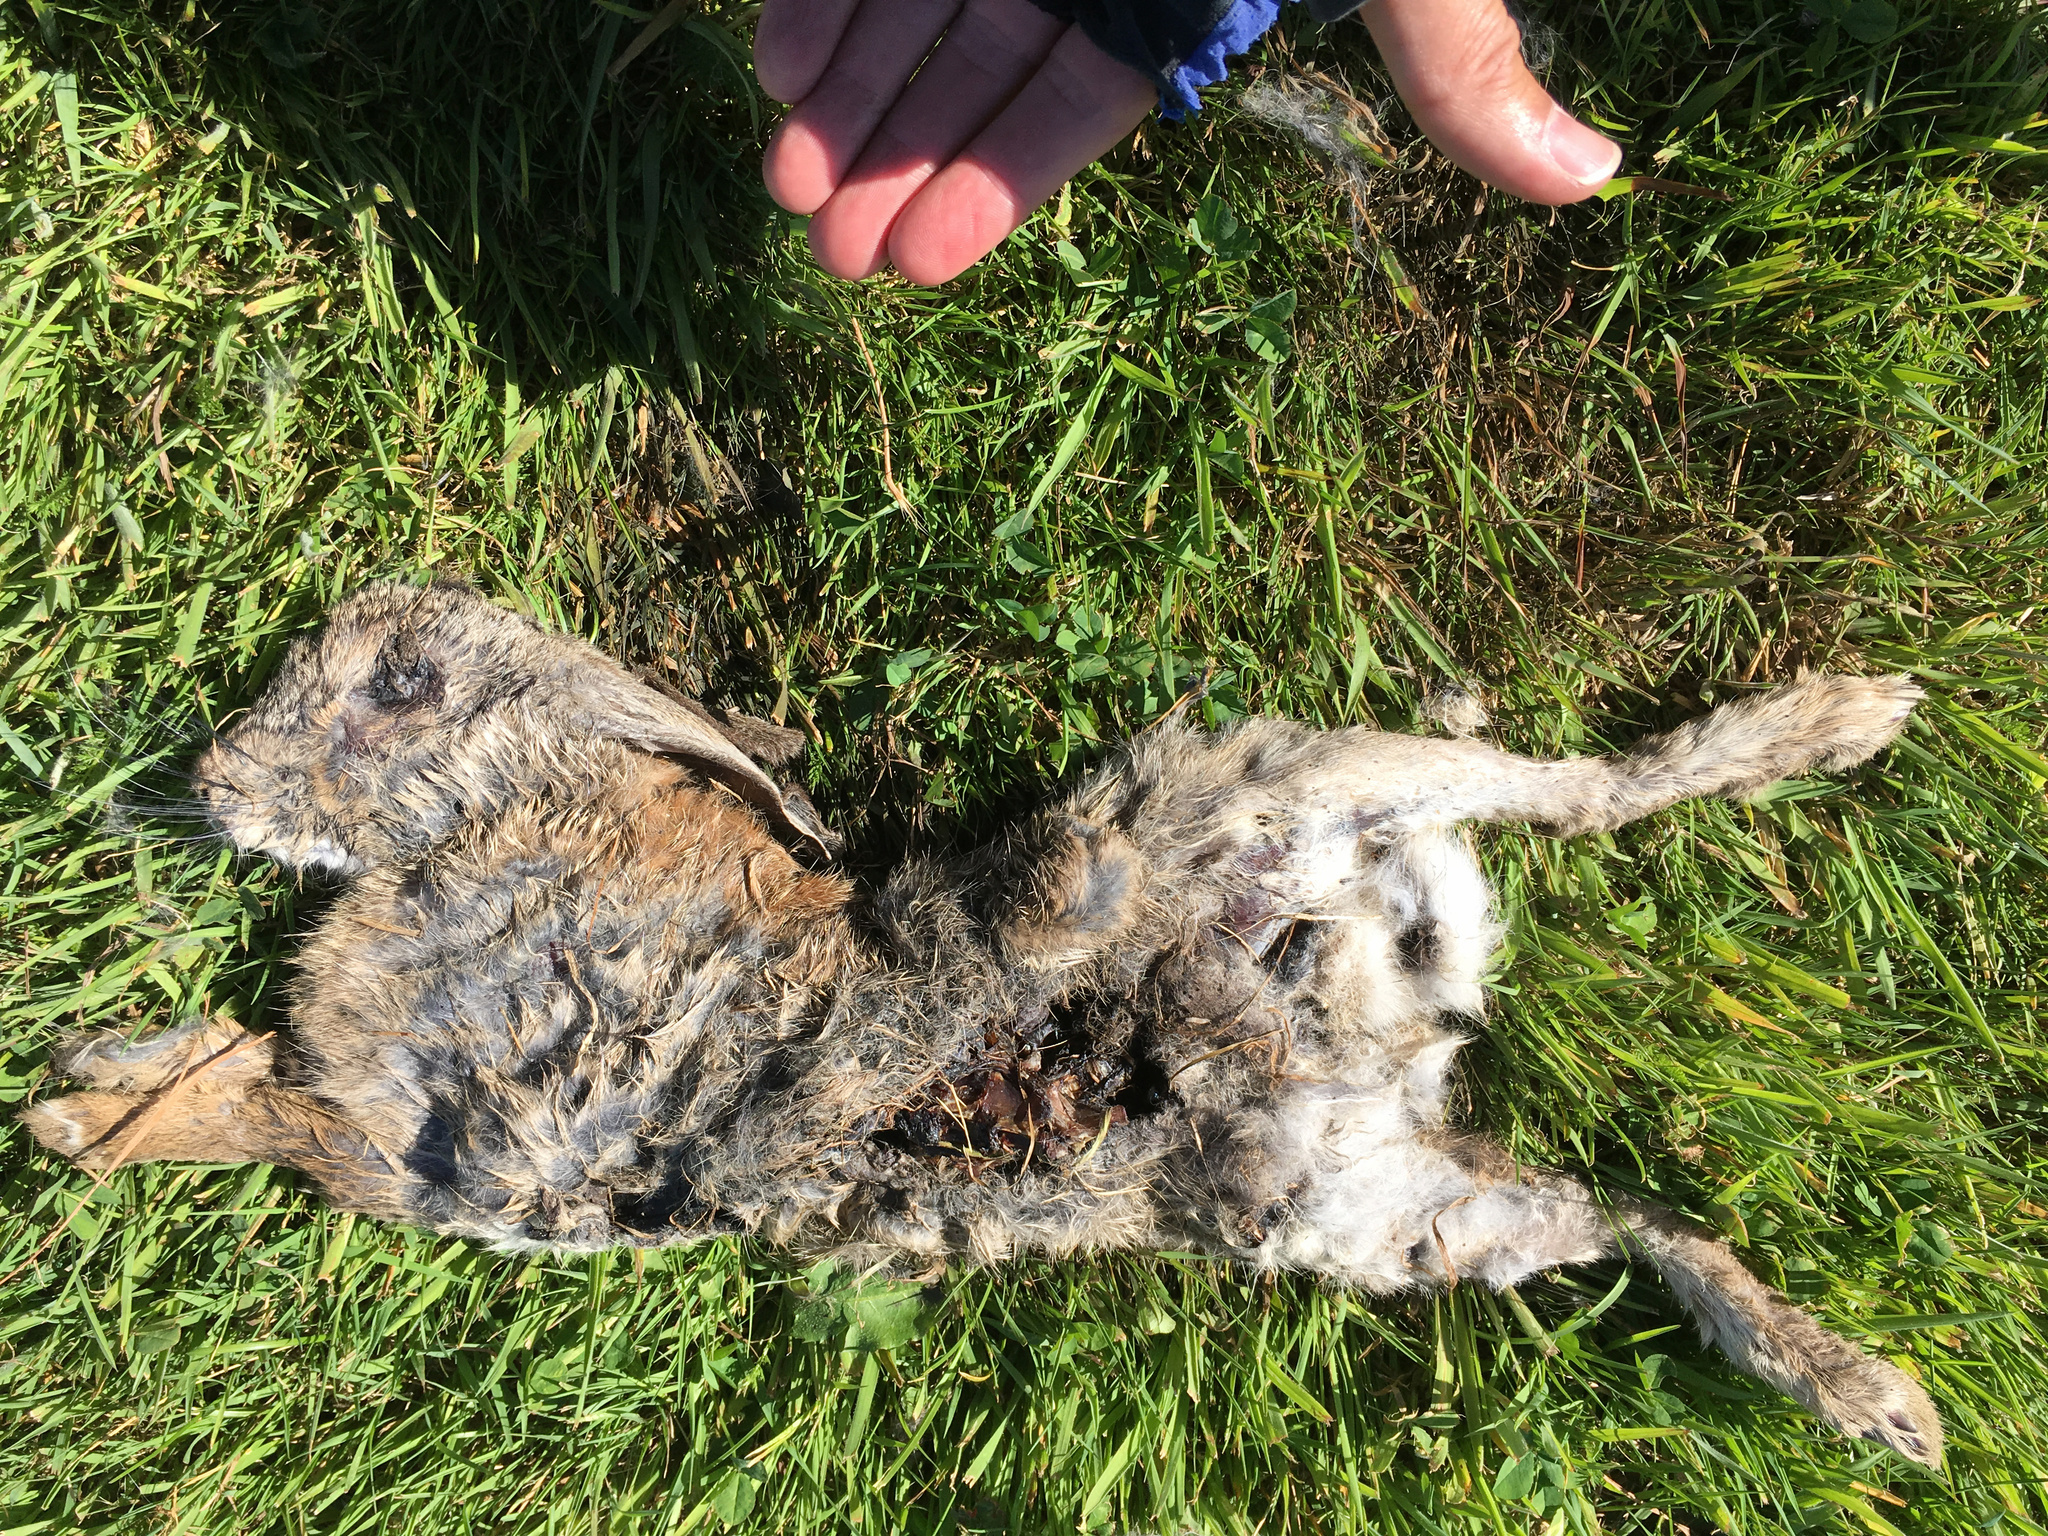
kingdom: Animalia
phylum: Chordata
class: Mammalia
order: Lagomorpha
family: Leporidae
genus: Oryctolagus
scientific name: Oryctolagus cuniculus
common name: European rabbit
